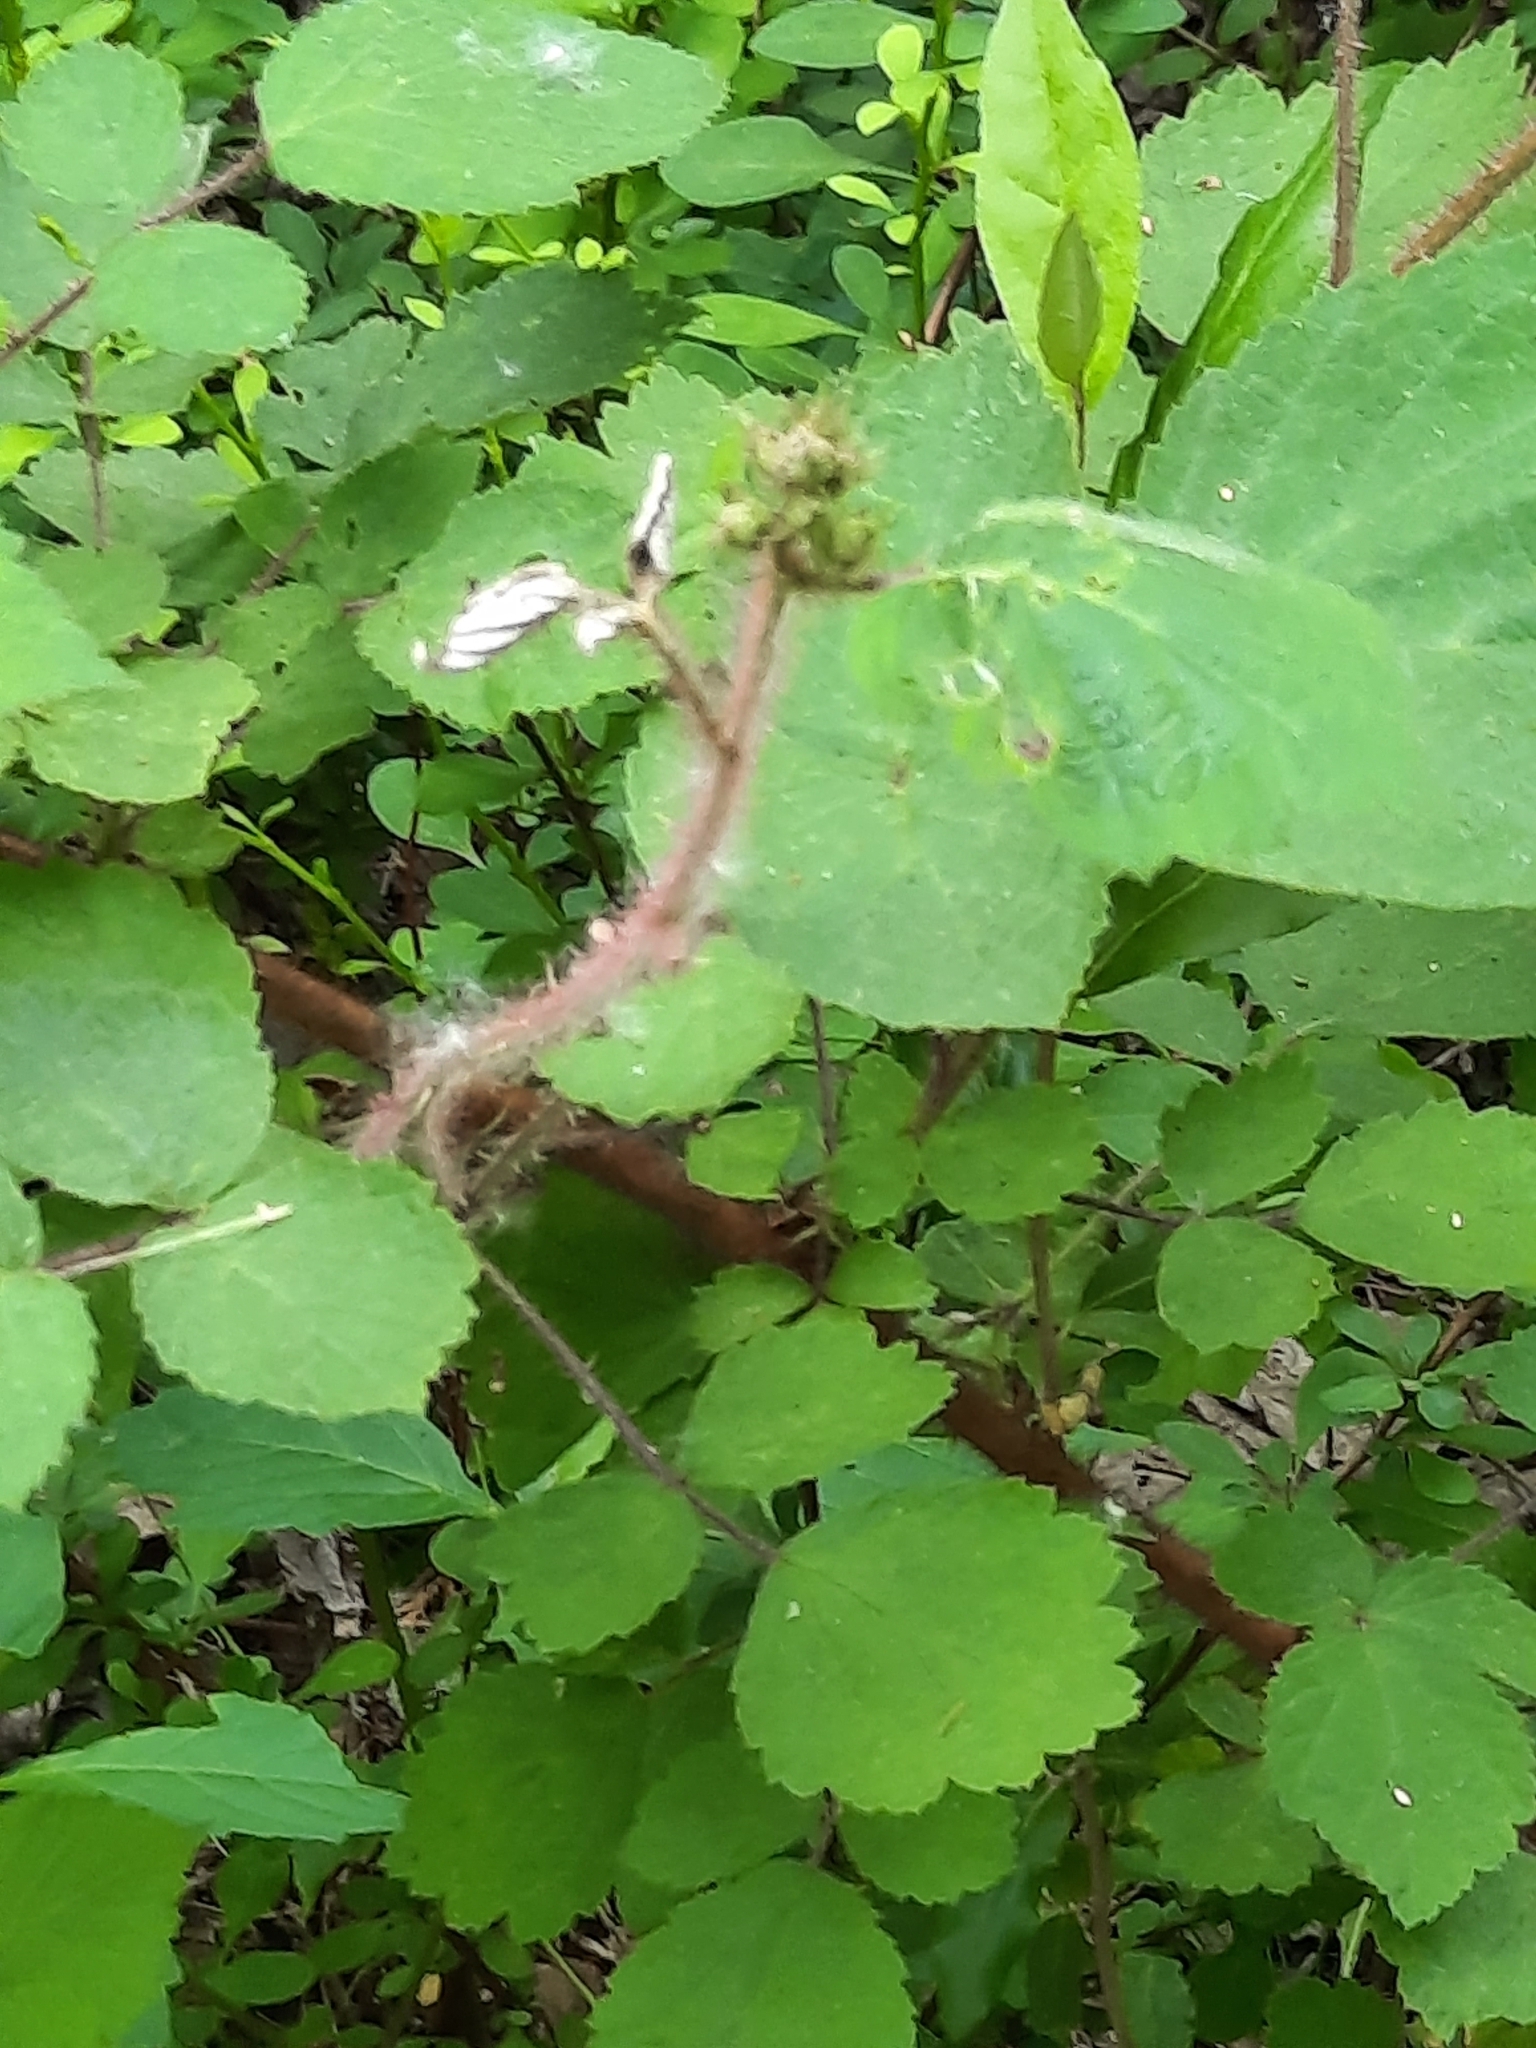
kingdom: Plantae
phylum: Tracheophyta
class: Magnoliopsida
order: Rosales
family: Rosaceae
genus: Rubus
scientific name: Rubus phoenicolasius
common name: Japanese wineberry
